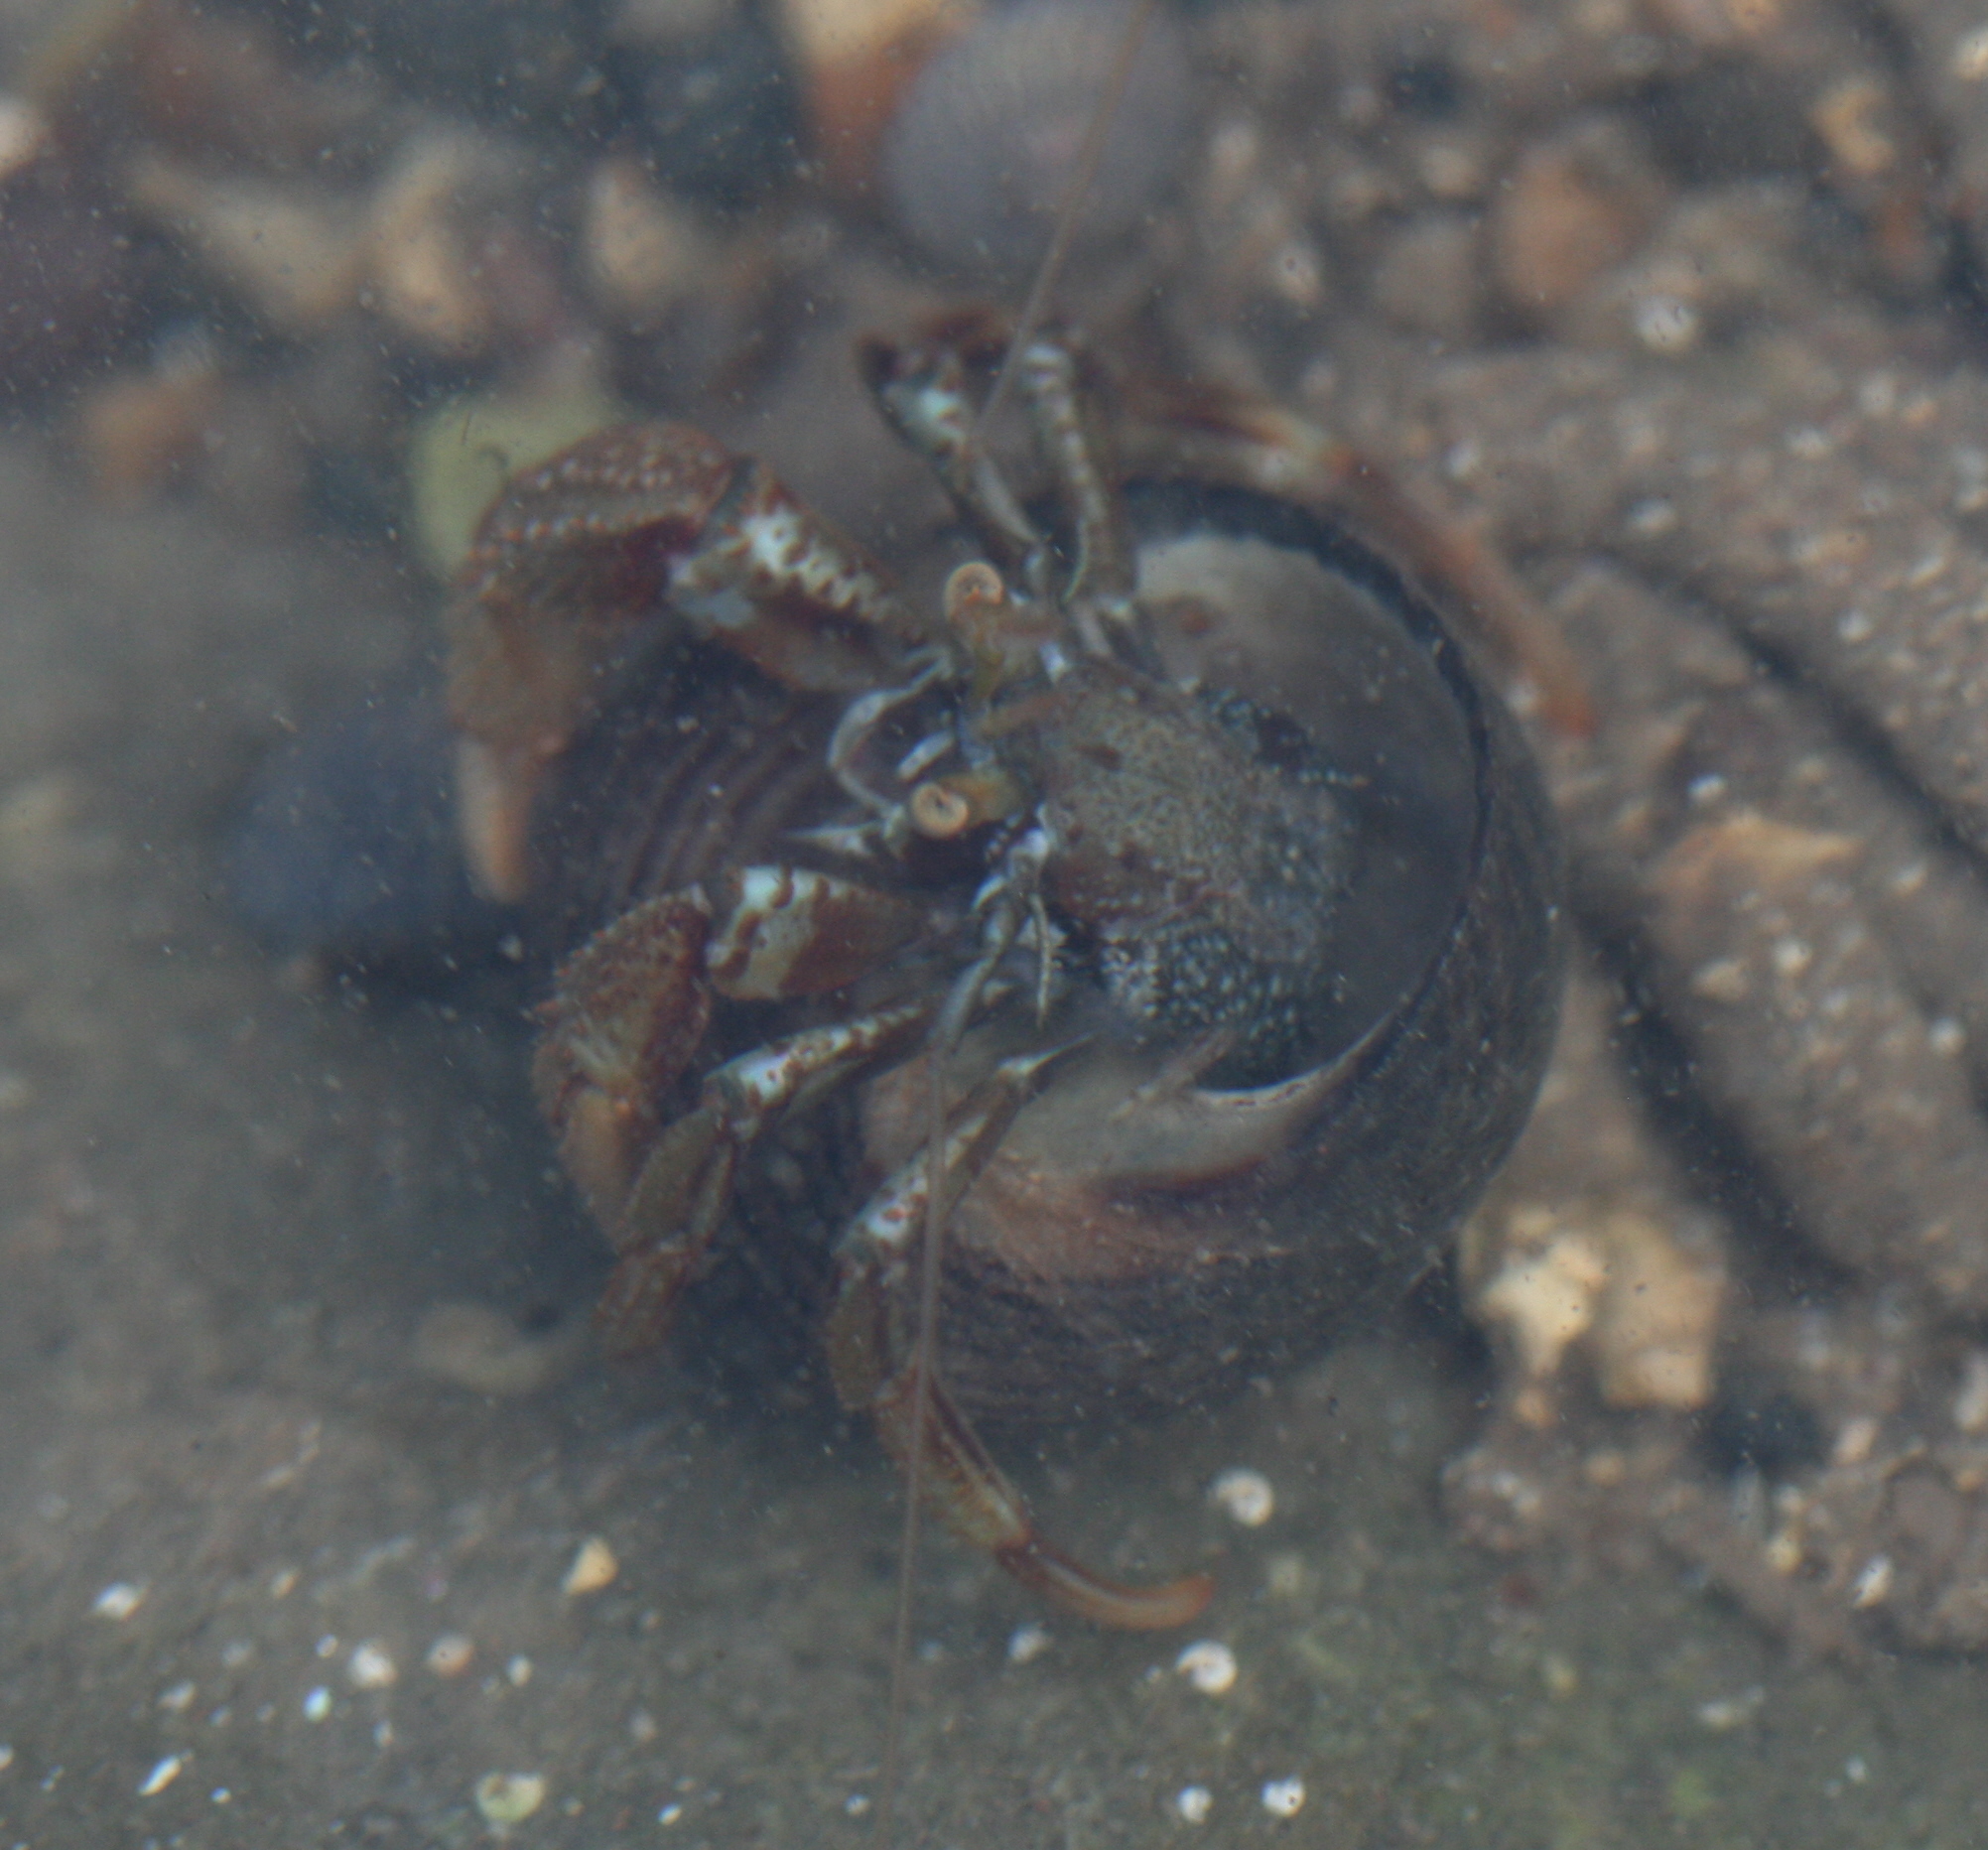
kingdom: Animalia
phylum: Arthropoda
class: Malacostraca
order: Decapoda
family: Paguridae
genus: Pagurus
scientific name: Pagurus bernhardus
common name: Hermit crab
